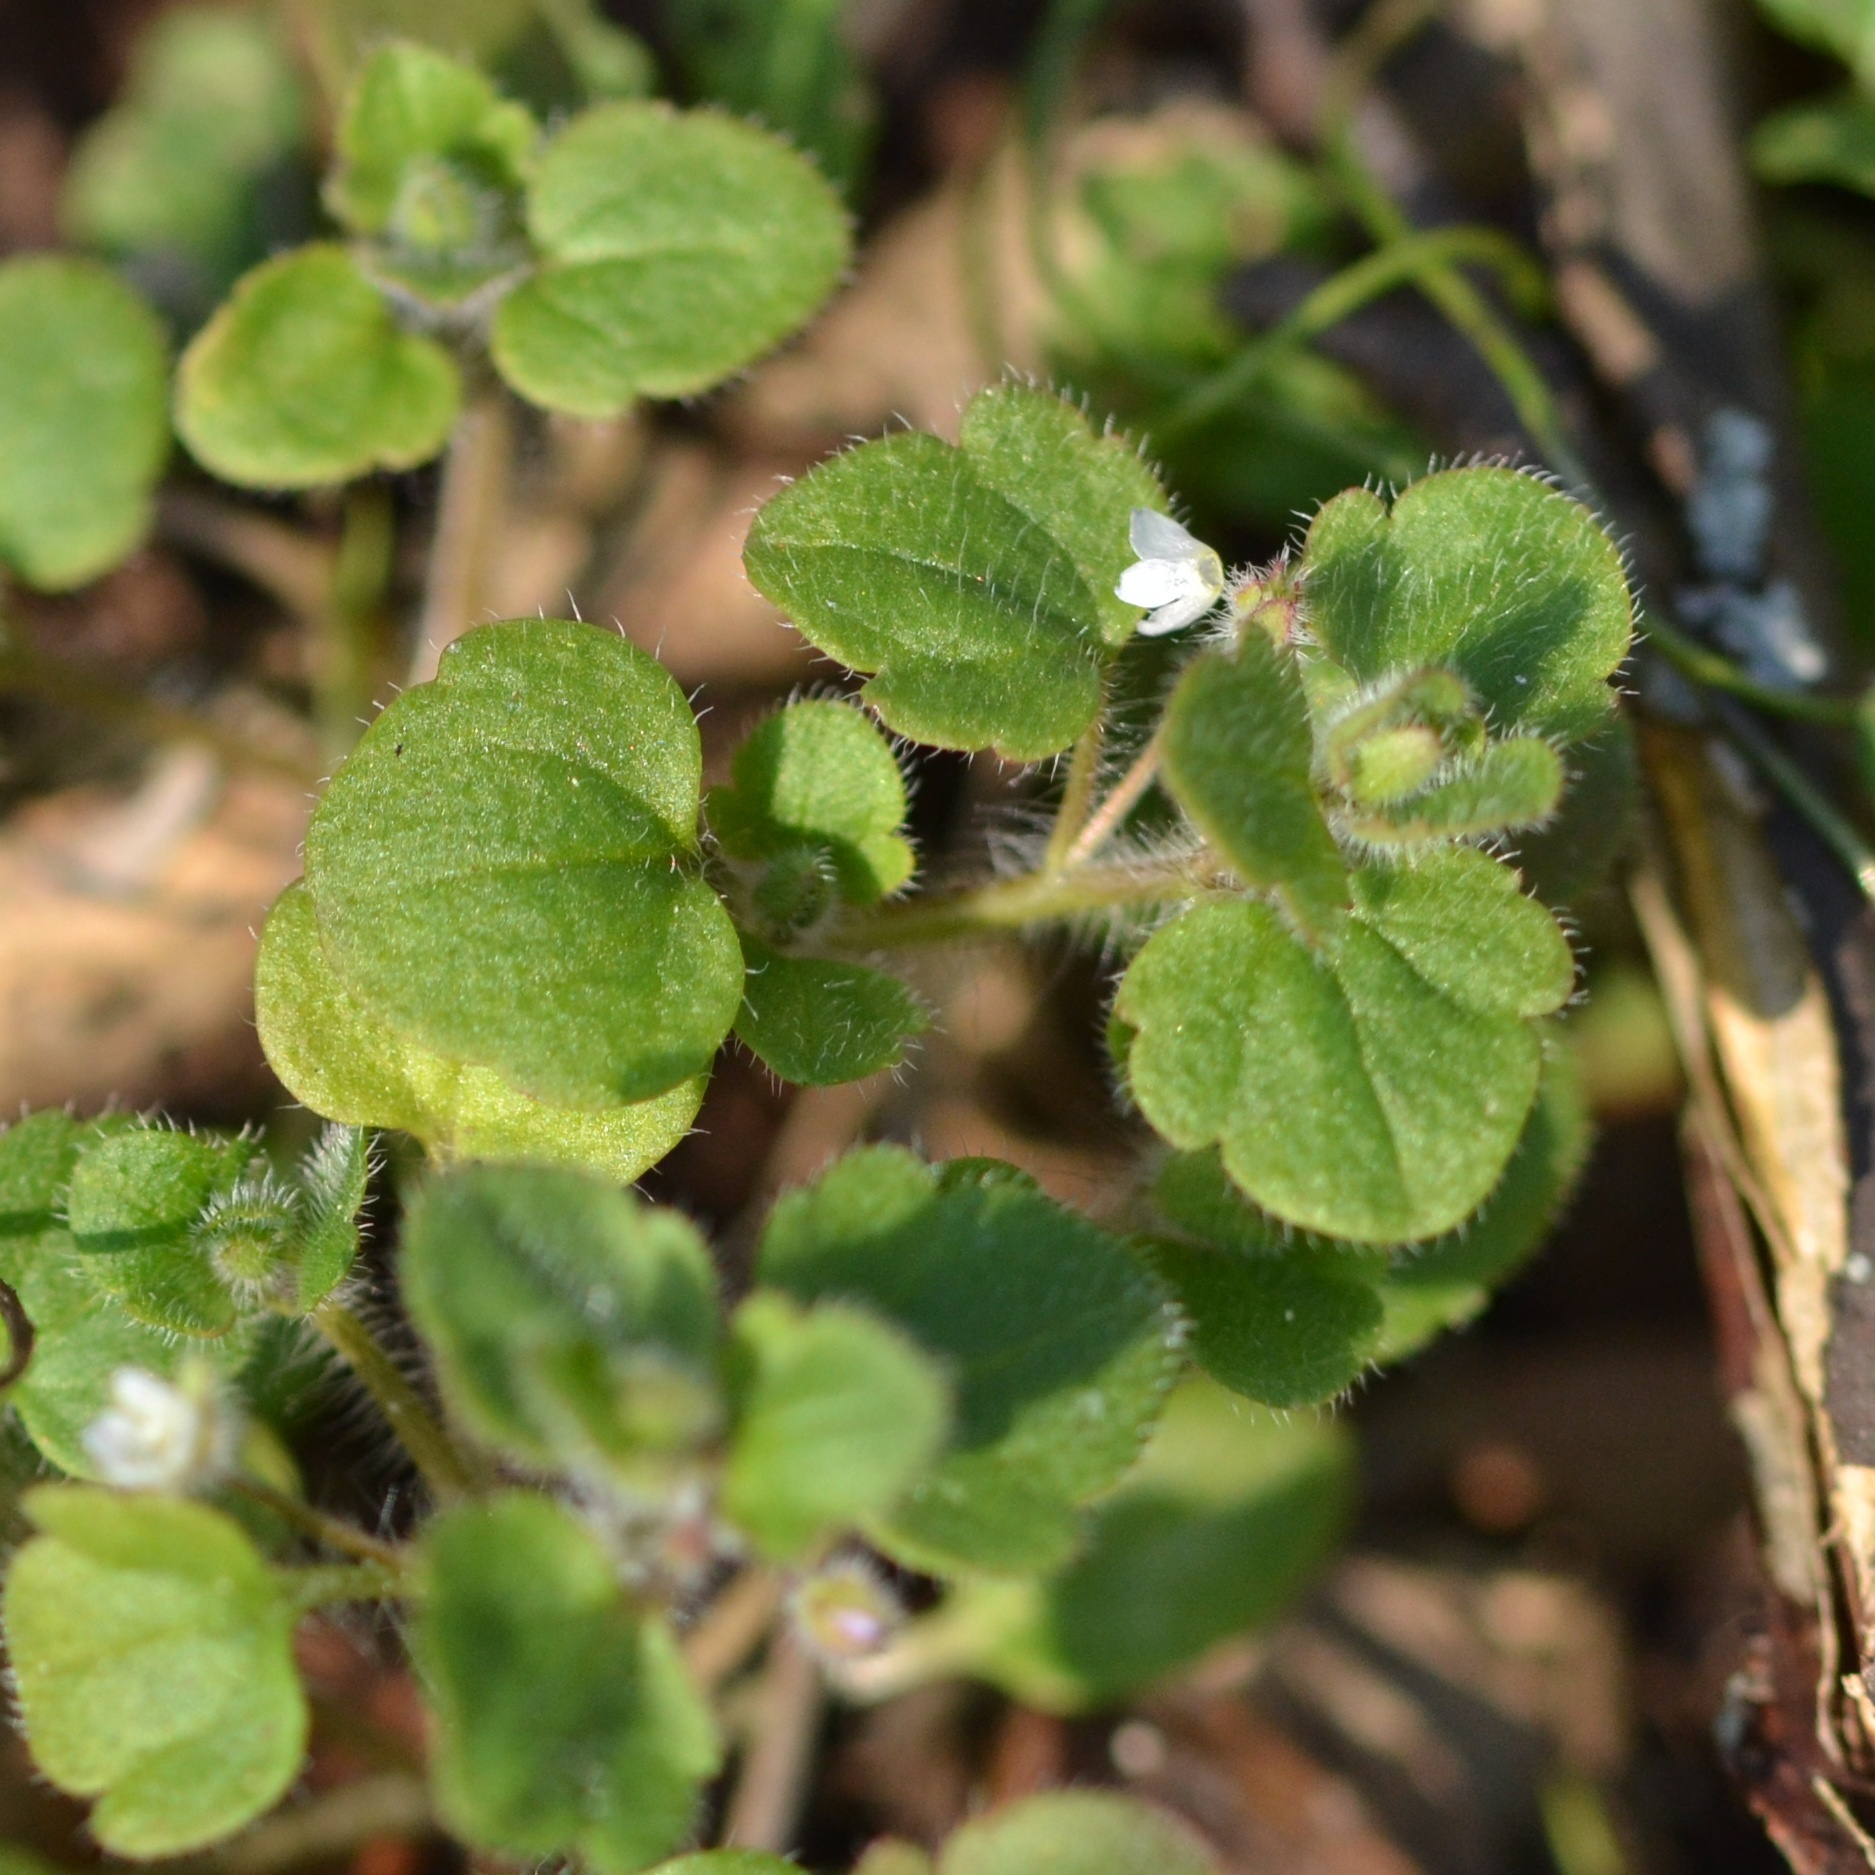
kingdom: Plantae
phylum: Tracheophyta
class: Magnoliopsida
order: Lamiales
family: Plantaginaceae
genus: Veronica
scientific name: Veronica sublobata
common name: False ivy-leaved speedwell
